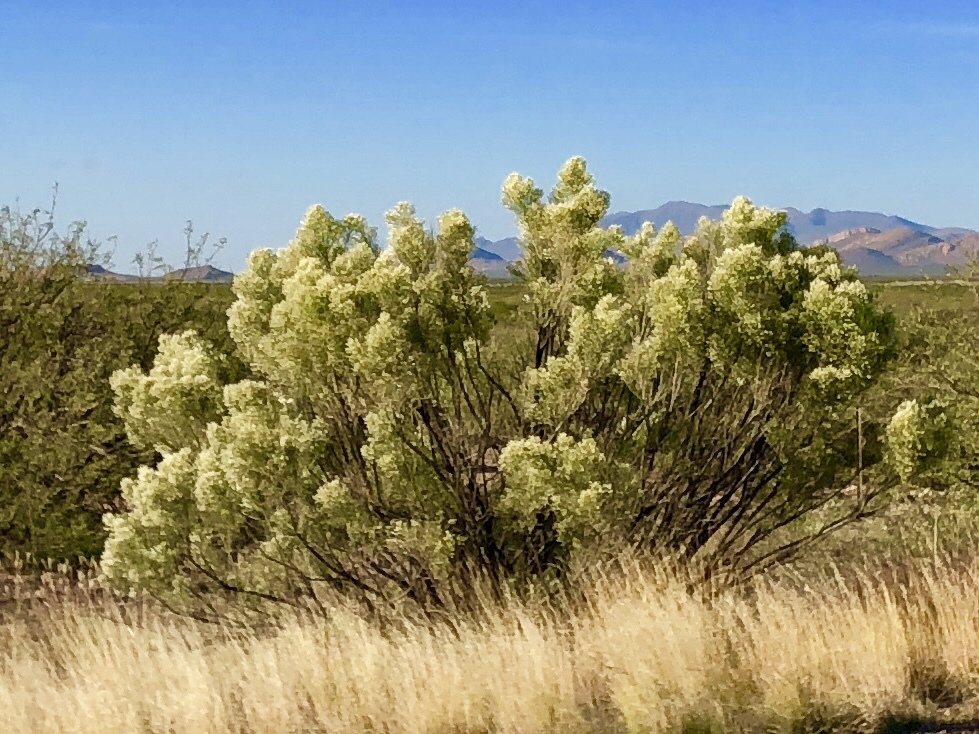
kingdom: Plantae
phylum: Tracheophyta
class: Magnoliopsida
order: Asterales
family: Asteraceae
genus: Baccharis
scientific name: Baccharis sarothroides
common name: Desert-broom
